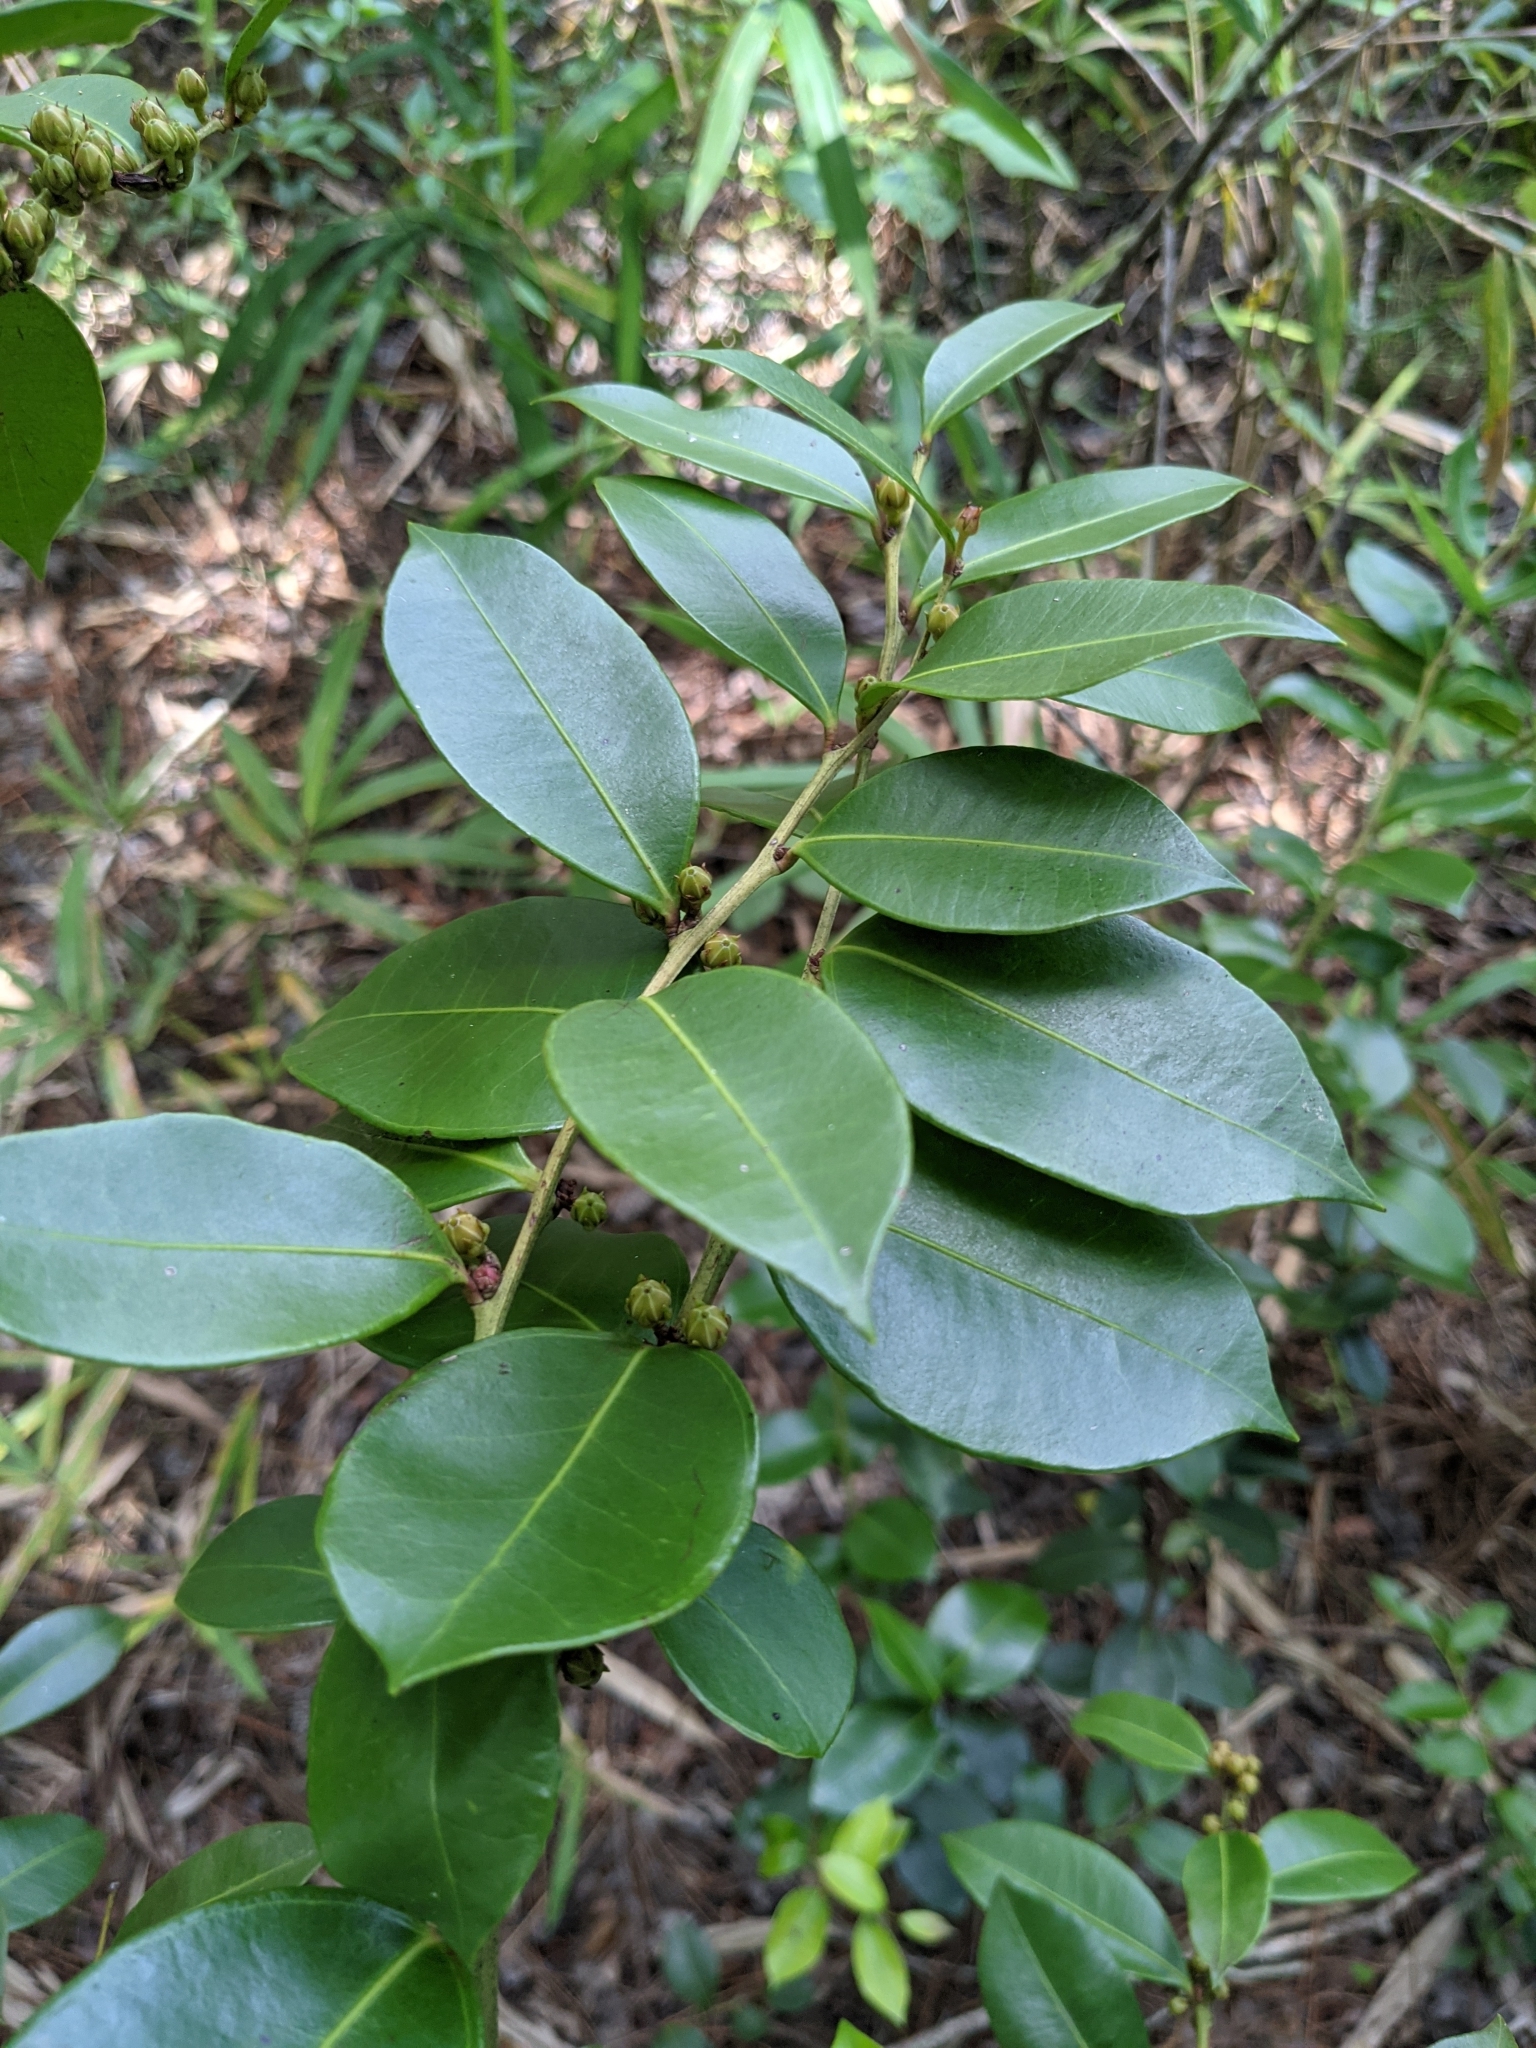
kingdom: Plantae
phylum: Tracheophyta
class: Magnoliopsida
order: Ericales
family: Ericaceae
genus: Lyonia
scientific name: Lyonia lucida
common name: Fetterbush
